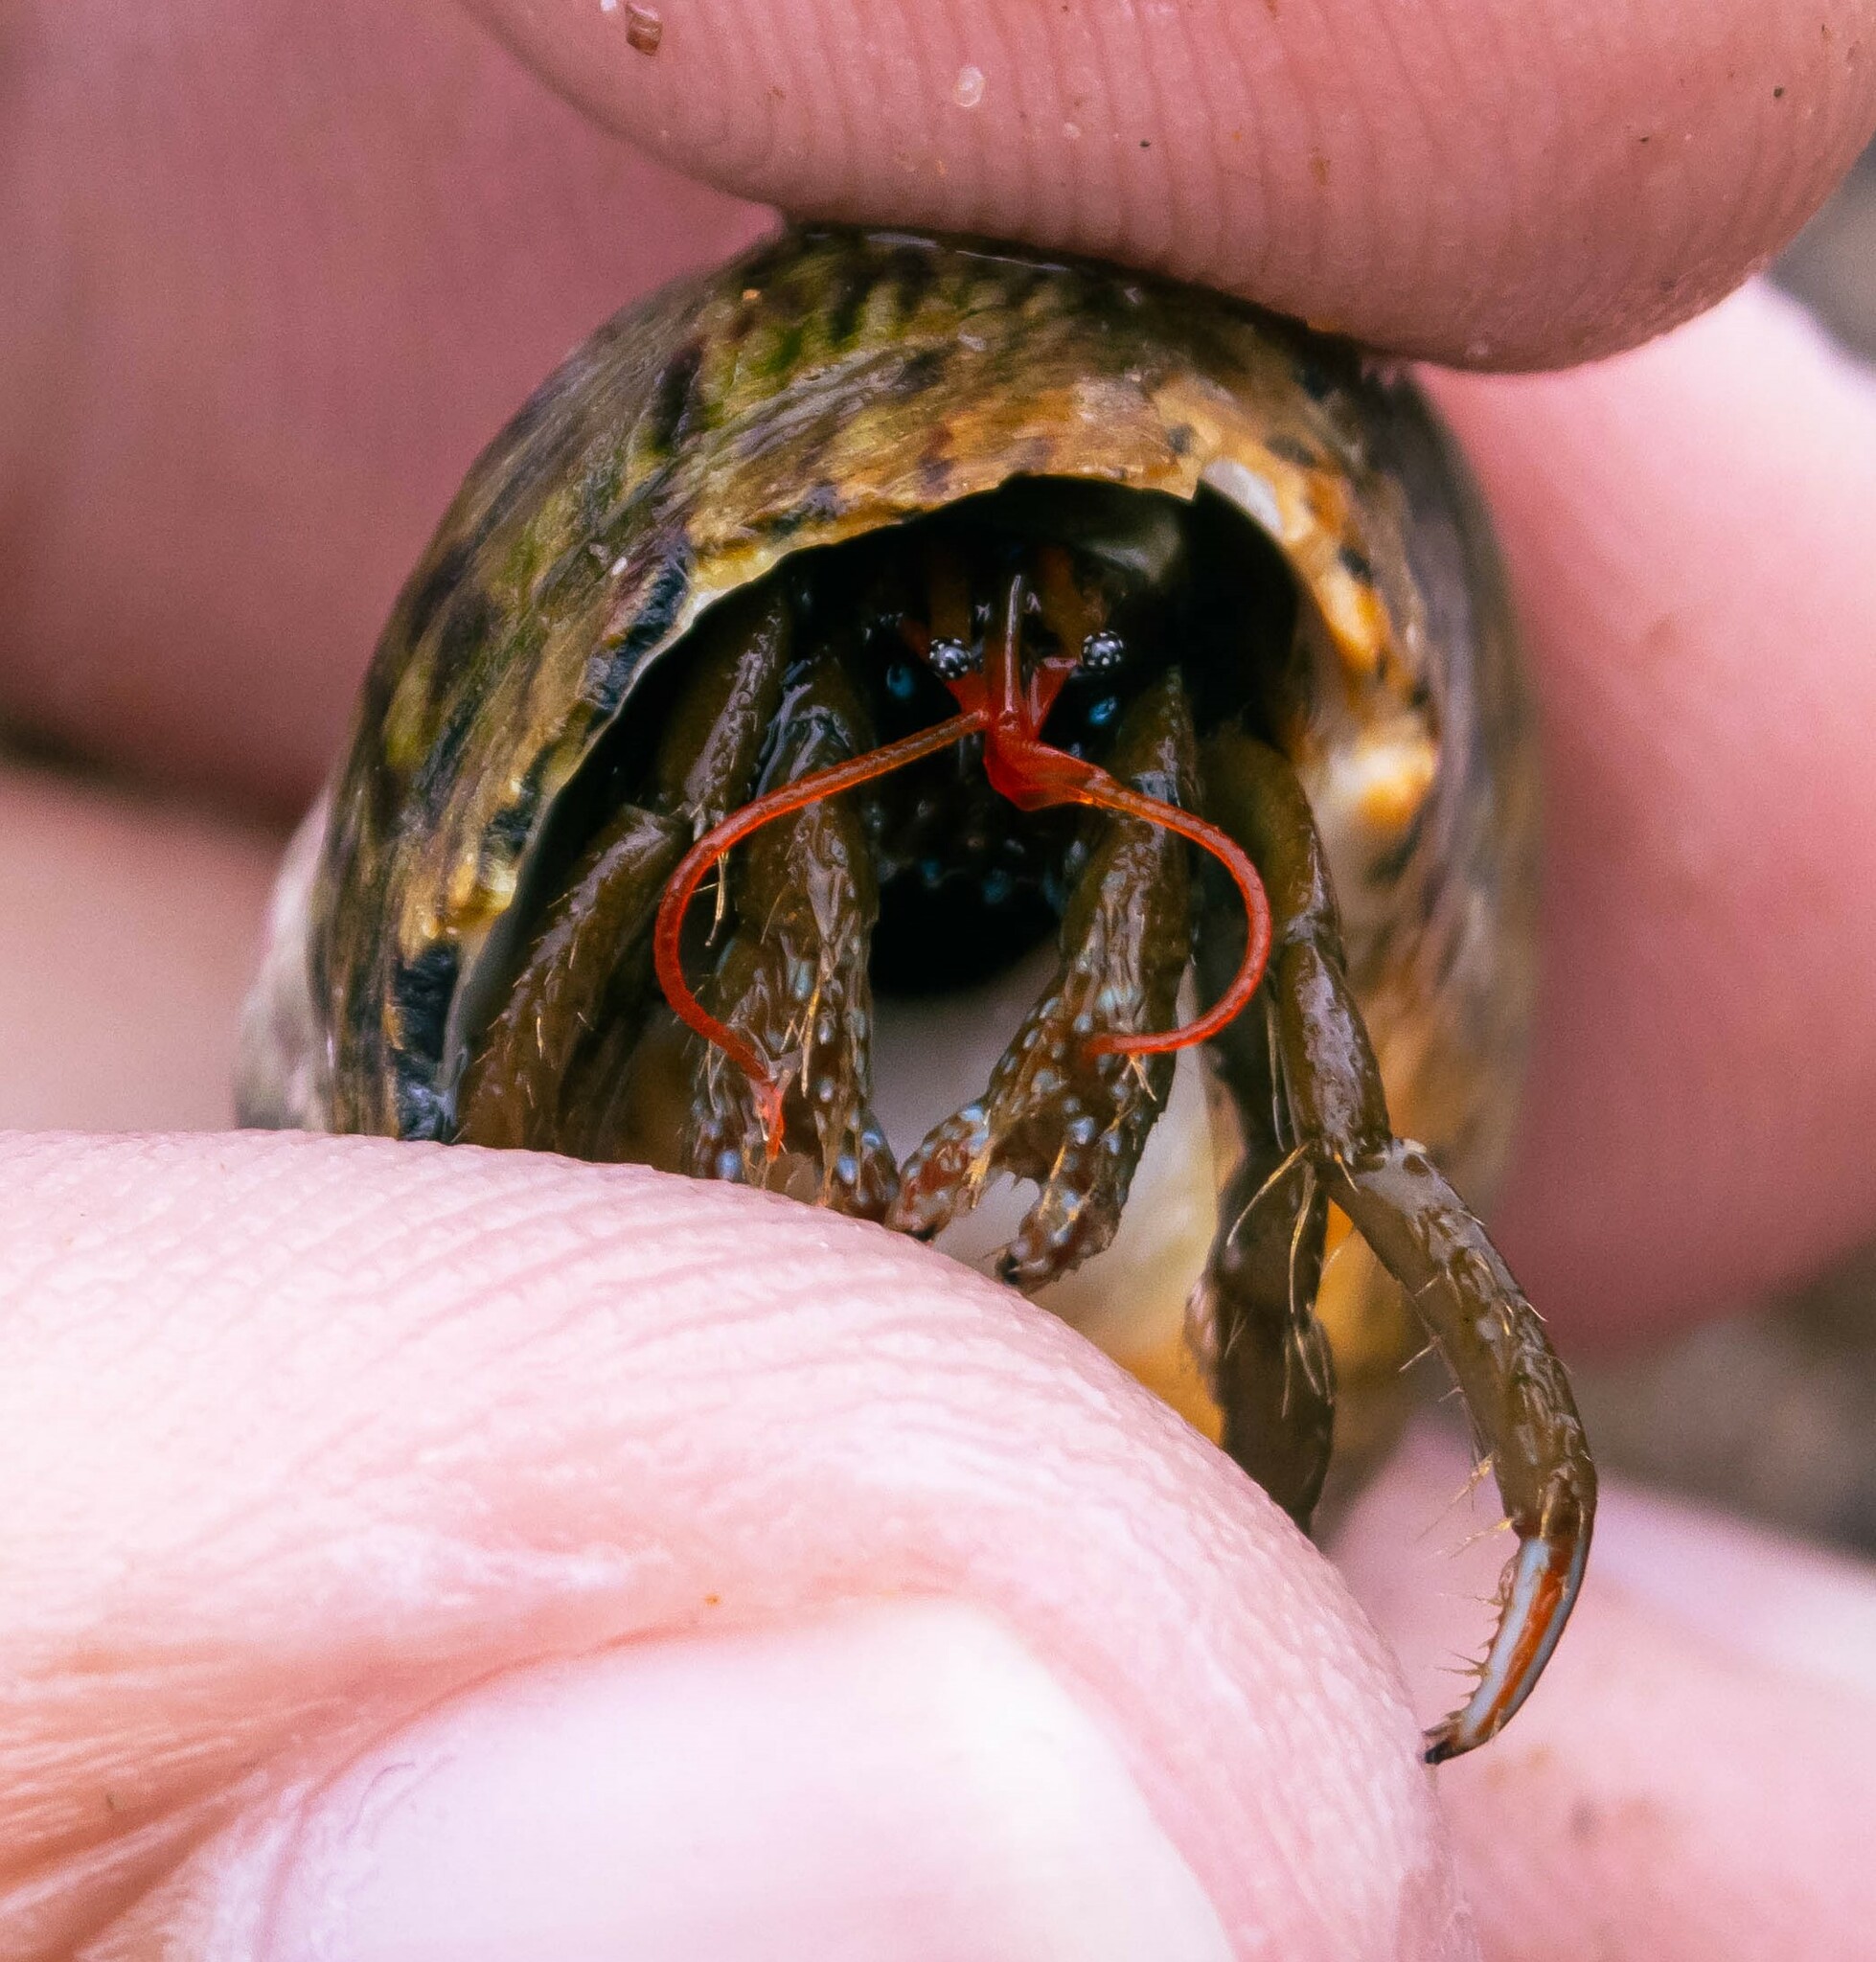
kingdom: Animalia
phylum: Arthropoda
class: Malacostraca
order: Decapoda
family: Diogenidae
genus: Clibanarius
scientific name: Clibanarius erythropus
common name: Hermit crab
